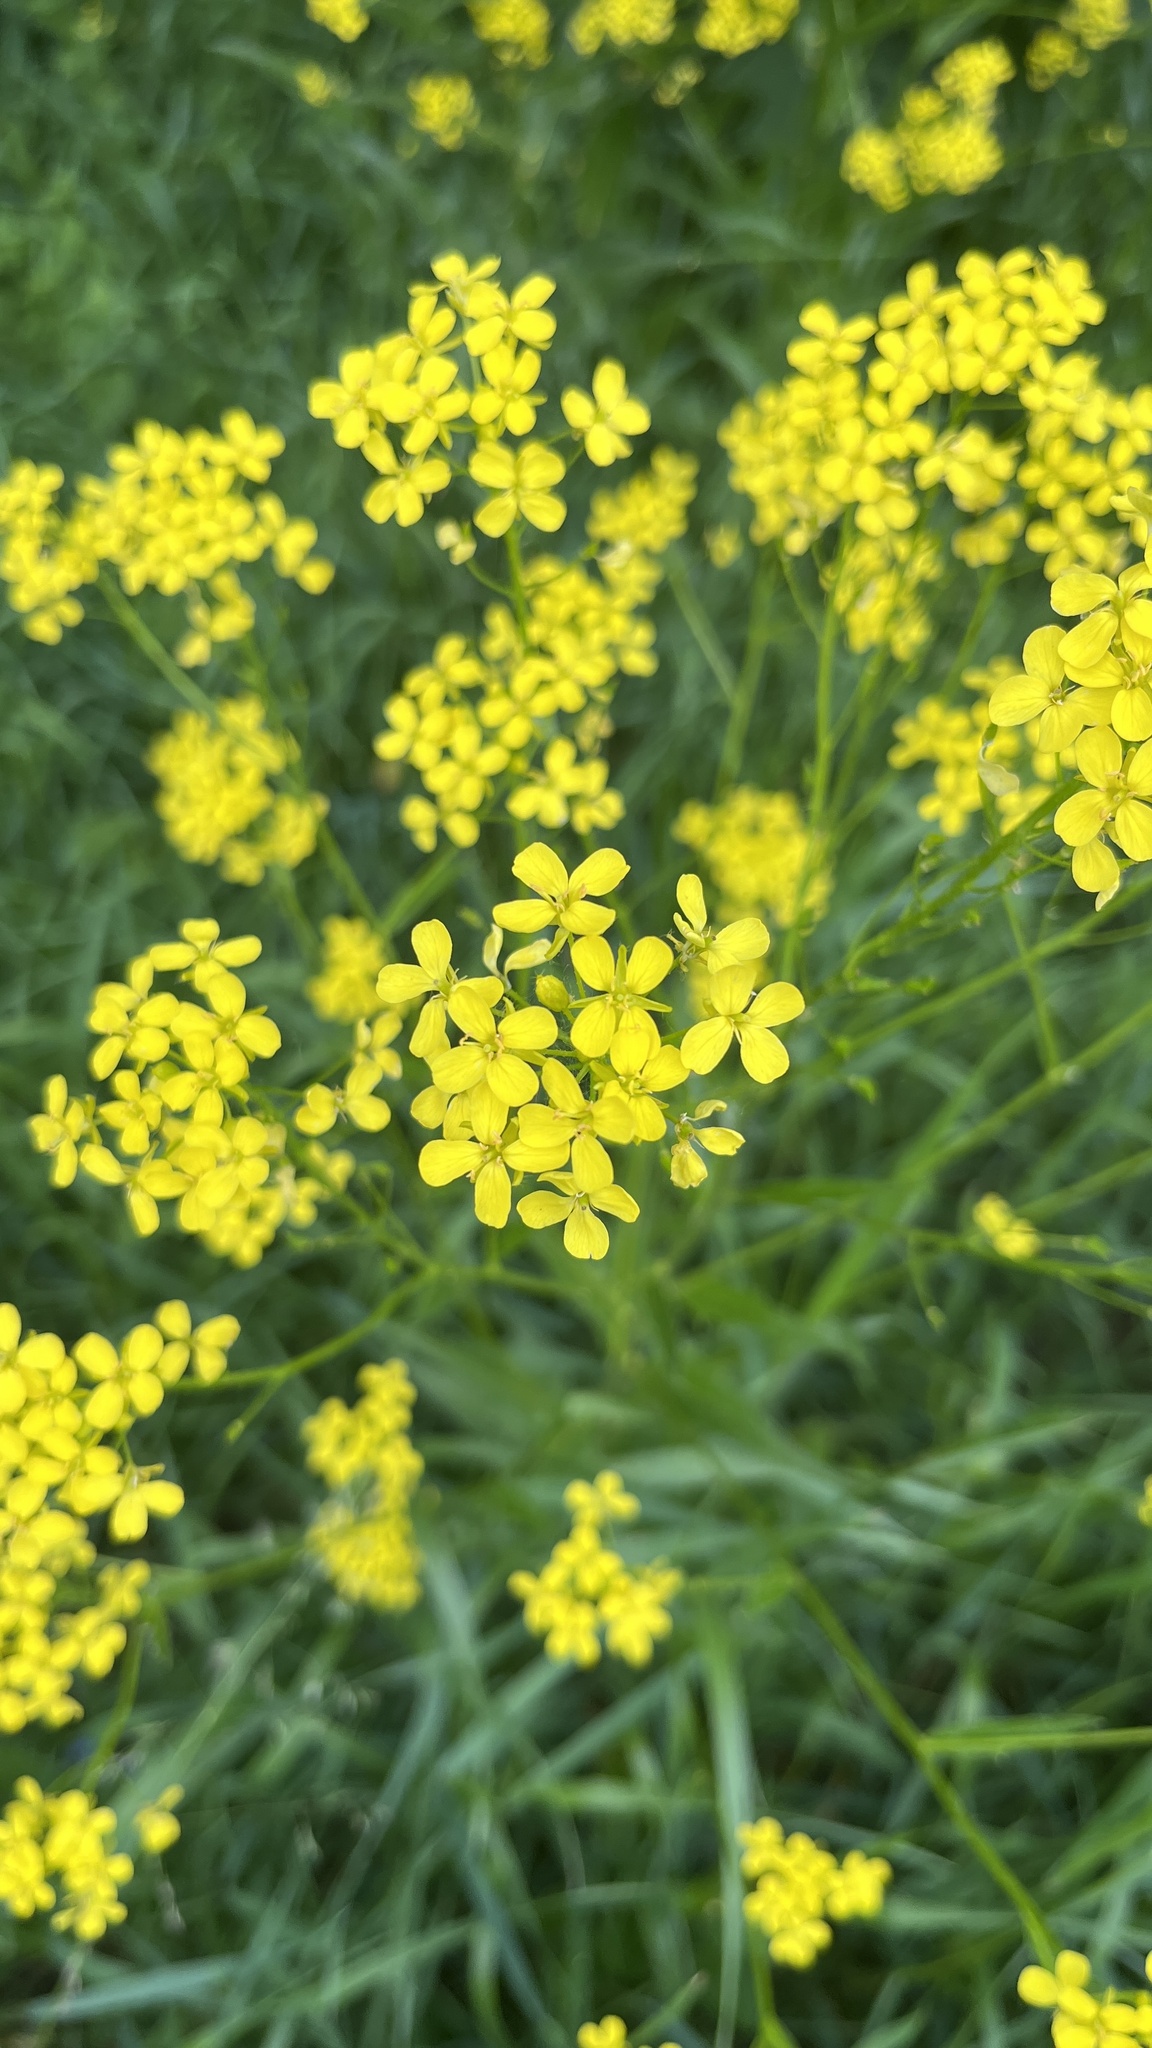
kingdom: Plantae
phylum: Tracheophyta
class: Magnoliopsida
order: Brassicales
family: Brassicaceae
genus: Bunias
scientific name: Bunias orientalis
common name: Warty-cabbage
